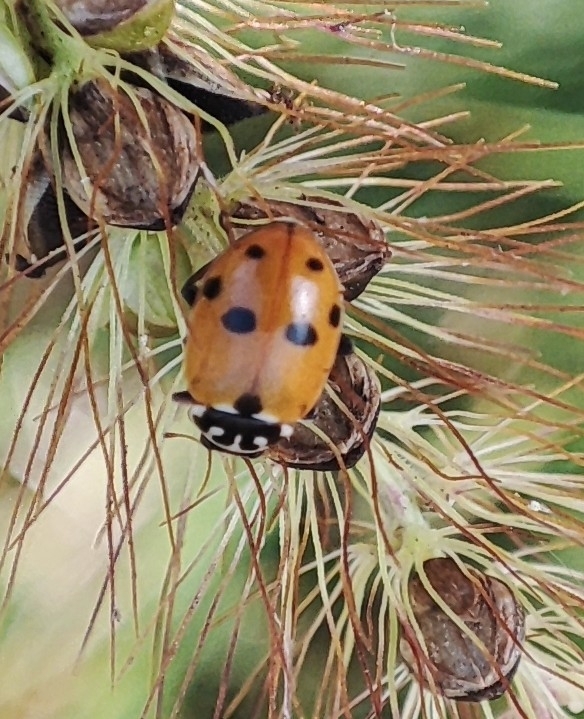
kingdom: Animalia
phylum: Arthropoda
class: Insecta
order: Coleoptera
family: Coccinellidae
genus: Hippodamia
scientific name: Hippodamia variegata
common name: Ladybird beetle
